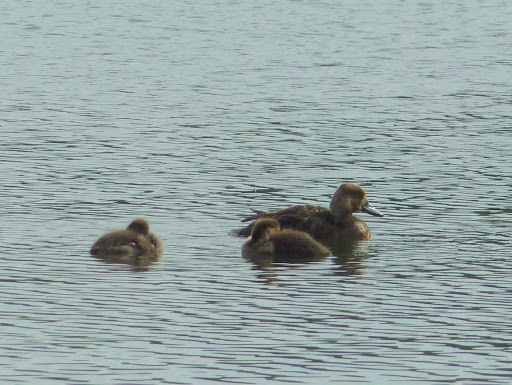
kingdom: Animalia
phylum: Chordata
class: Aves
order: Anseriformes
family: Anatidae
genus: Aythya
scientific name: Aythya affinis
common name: Lesser scaup
